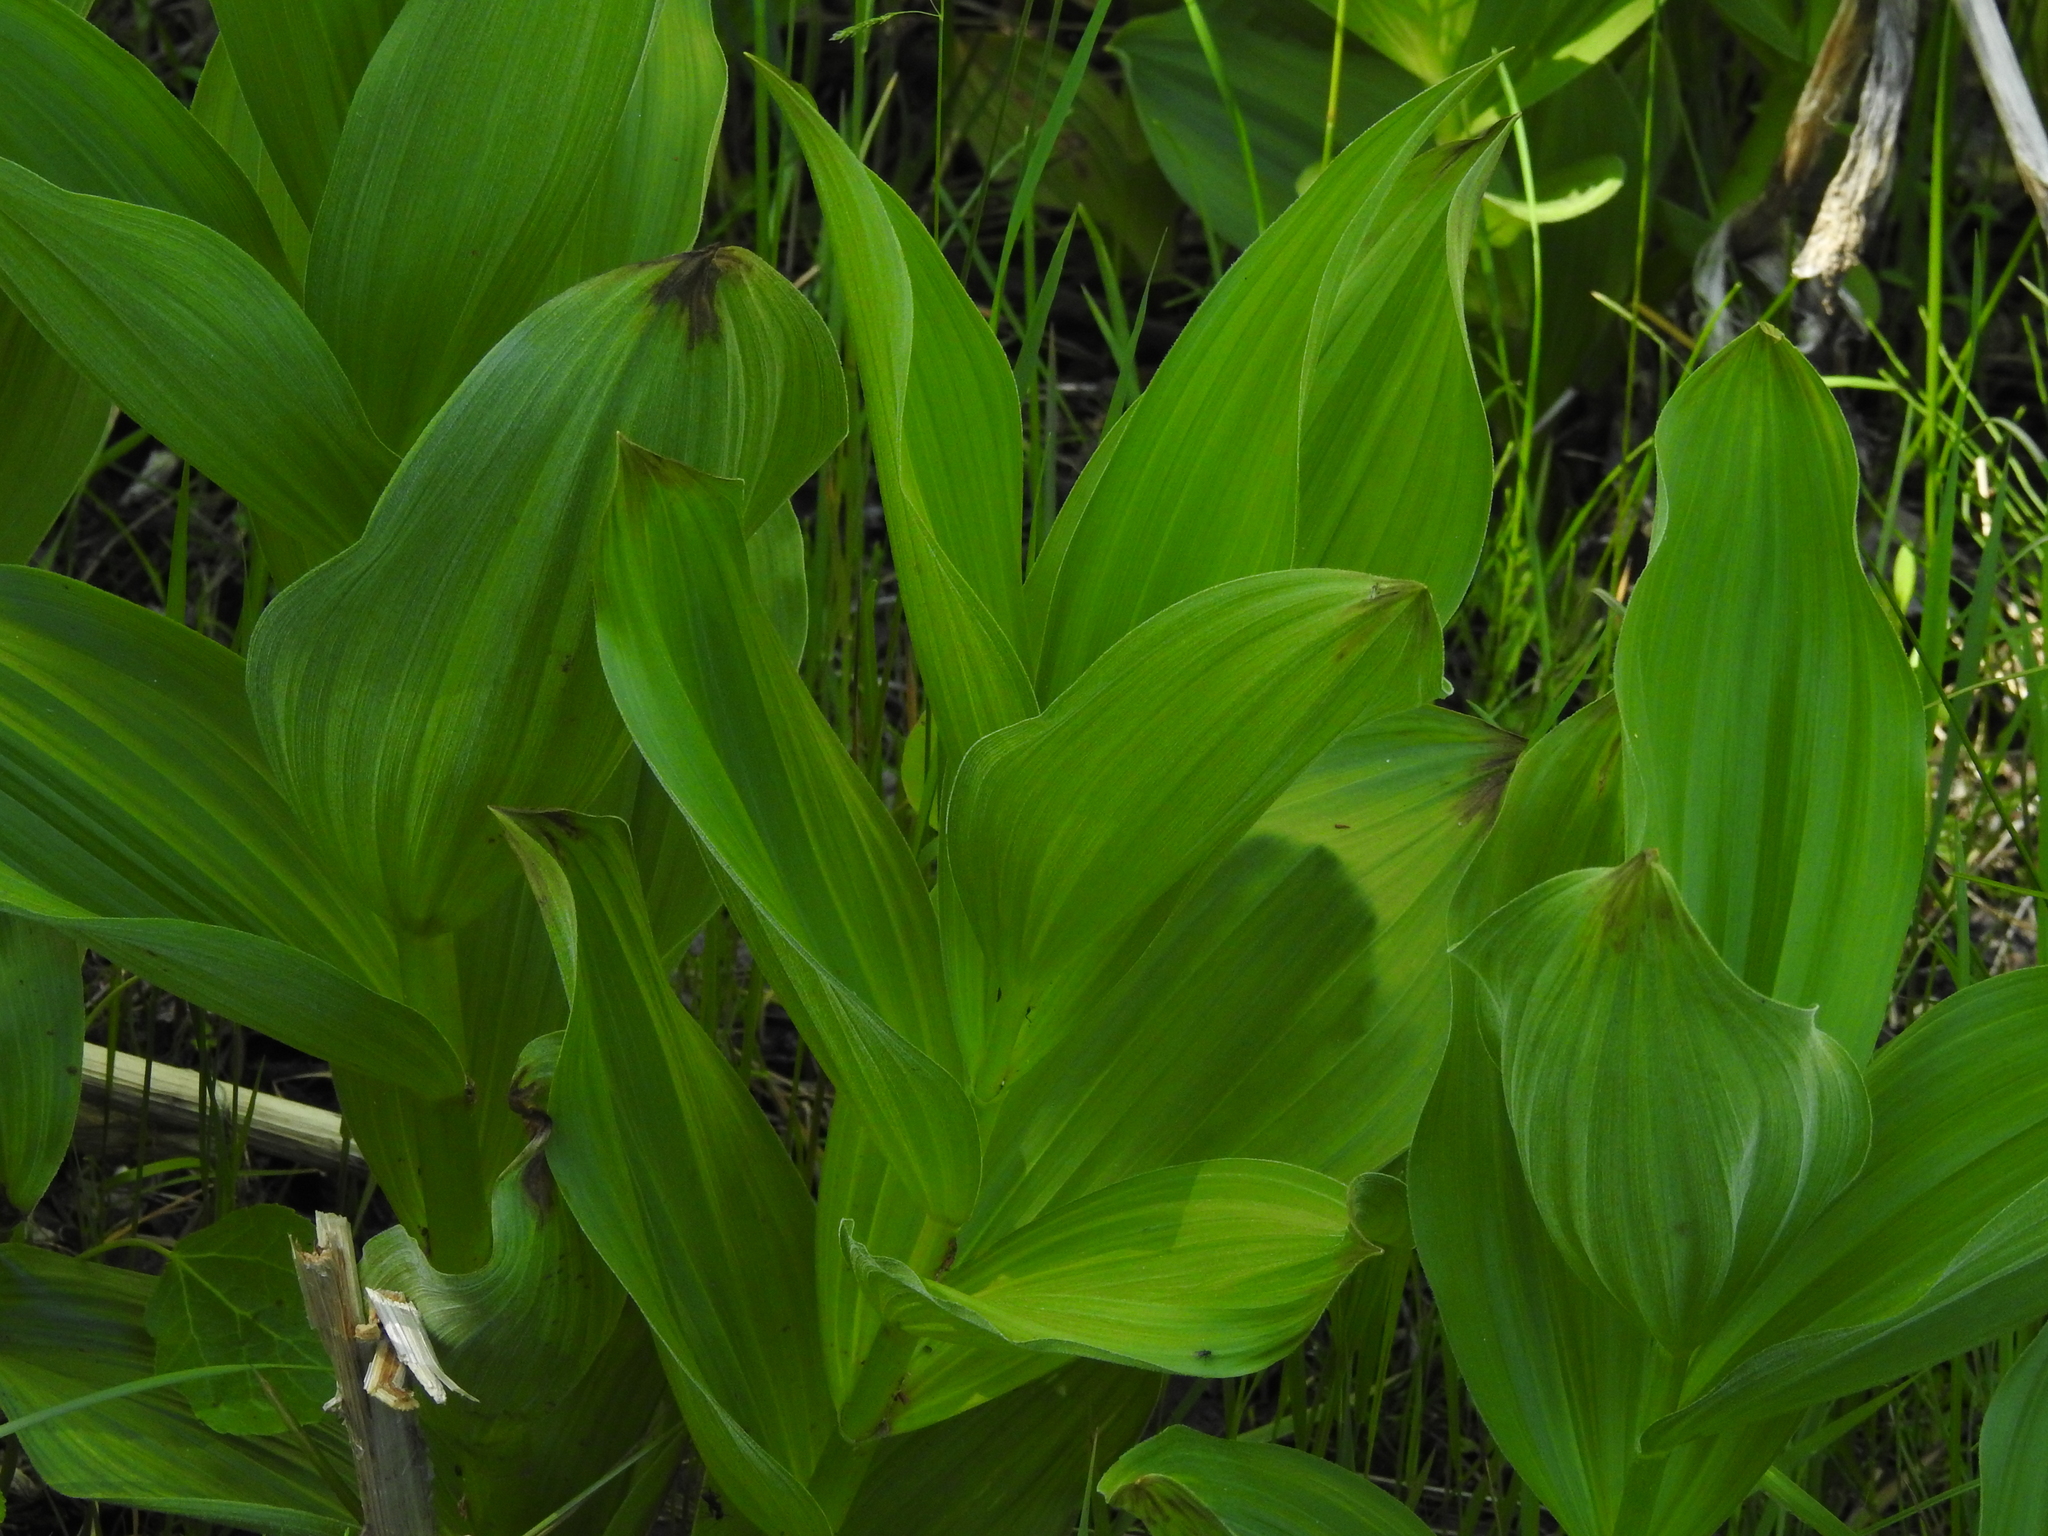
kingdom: Plantae
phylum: Tracheophyta
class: Liliopsida
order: Liliales
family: Melanthiaceae
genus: Veratrum
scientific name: Veratrum californicum
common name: California veratrum
